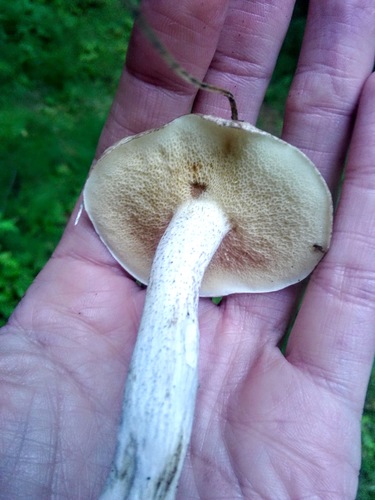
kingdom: Fungi
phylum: Basidiomycota
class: Agaricomycetes
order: Boletales
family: Suillaceae
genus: Suillus
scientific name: Suillus placidus
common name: Slippery white bolete
